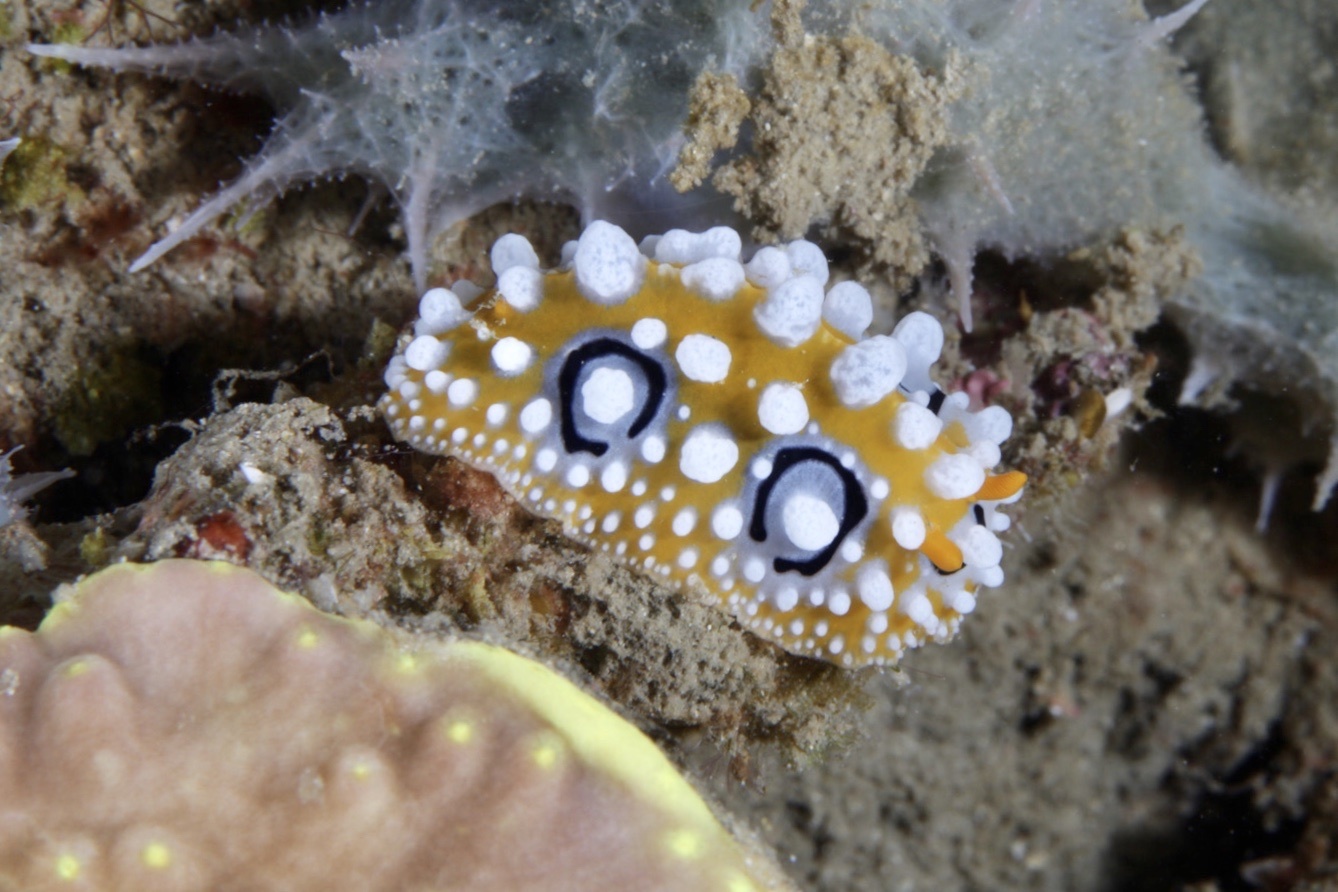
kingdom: Animalia
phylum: Mollusca
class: Gastropoda
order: Nudibranchia
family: Phyllidiidae
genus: Phyllidia
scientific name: Phyllidia ocellata
